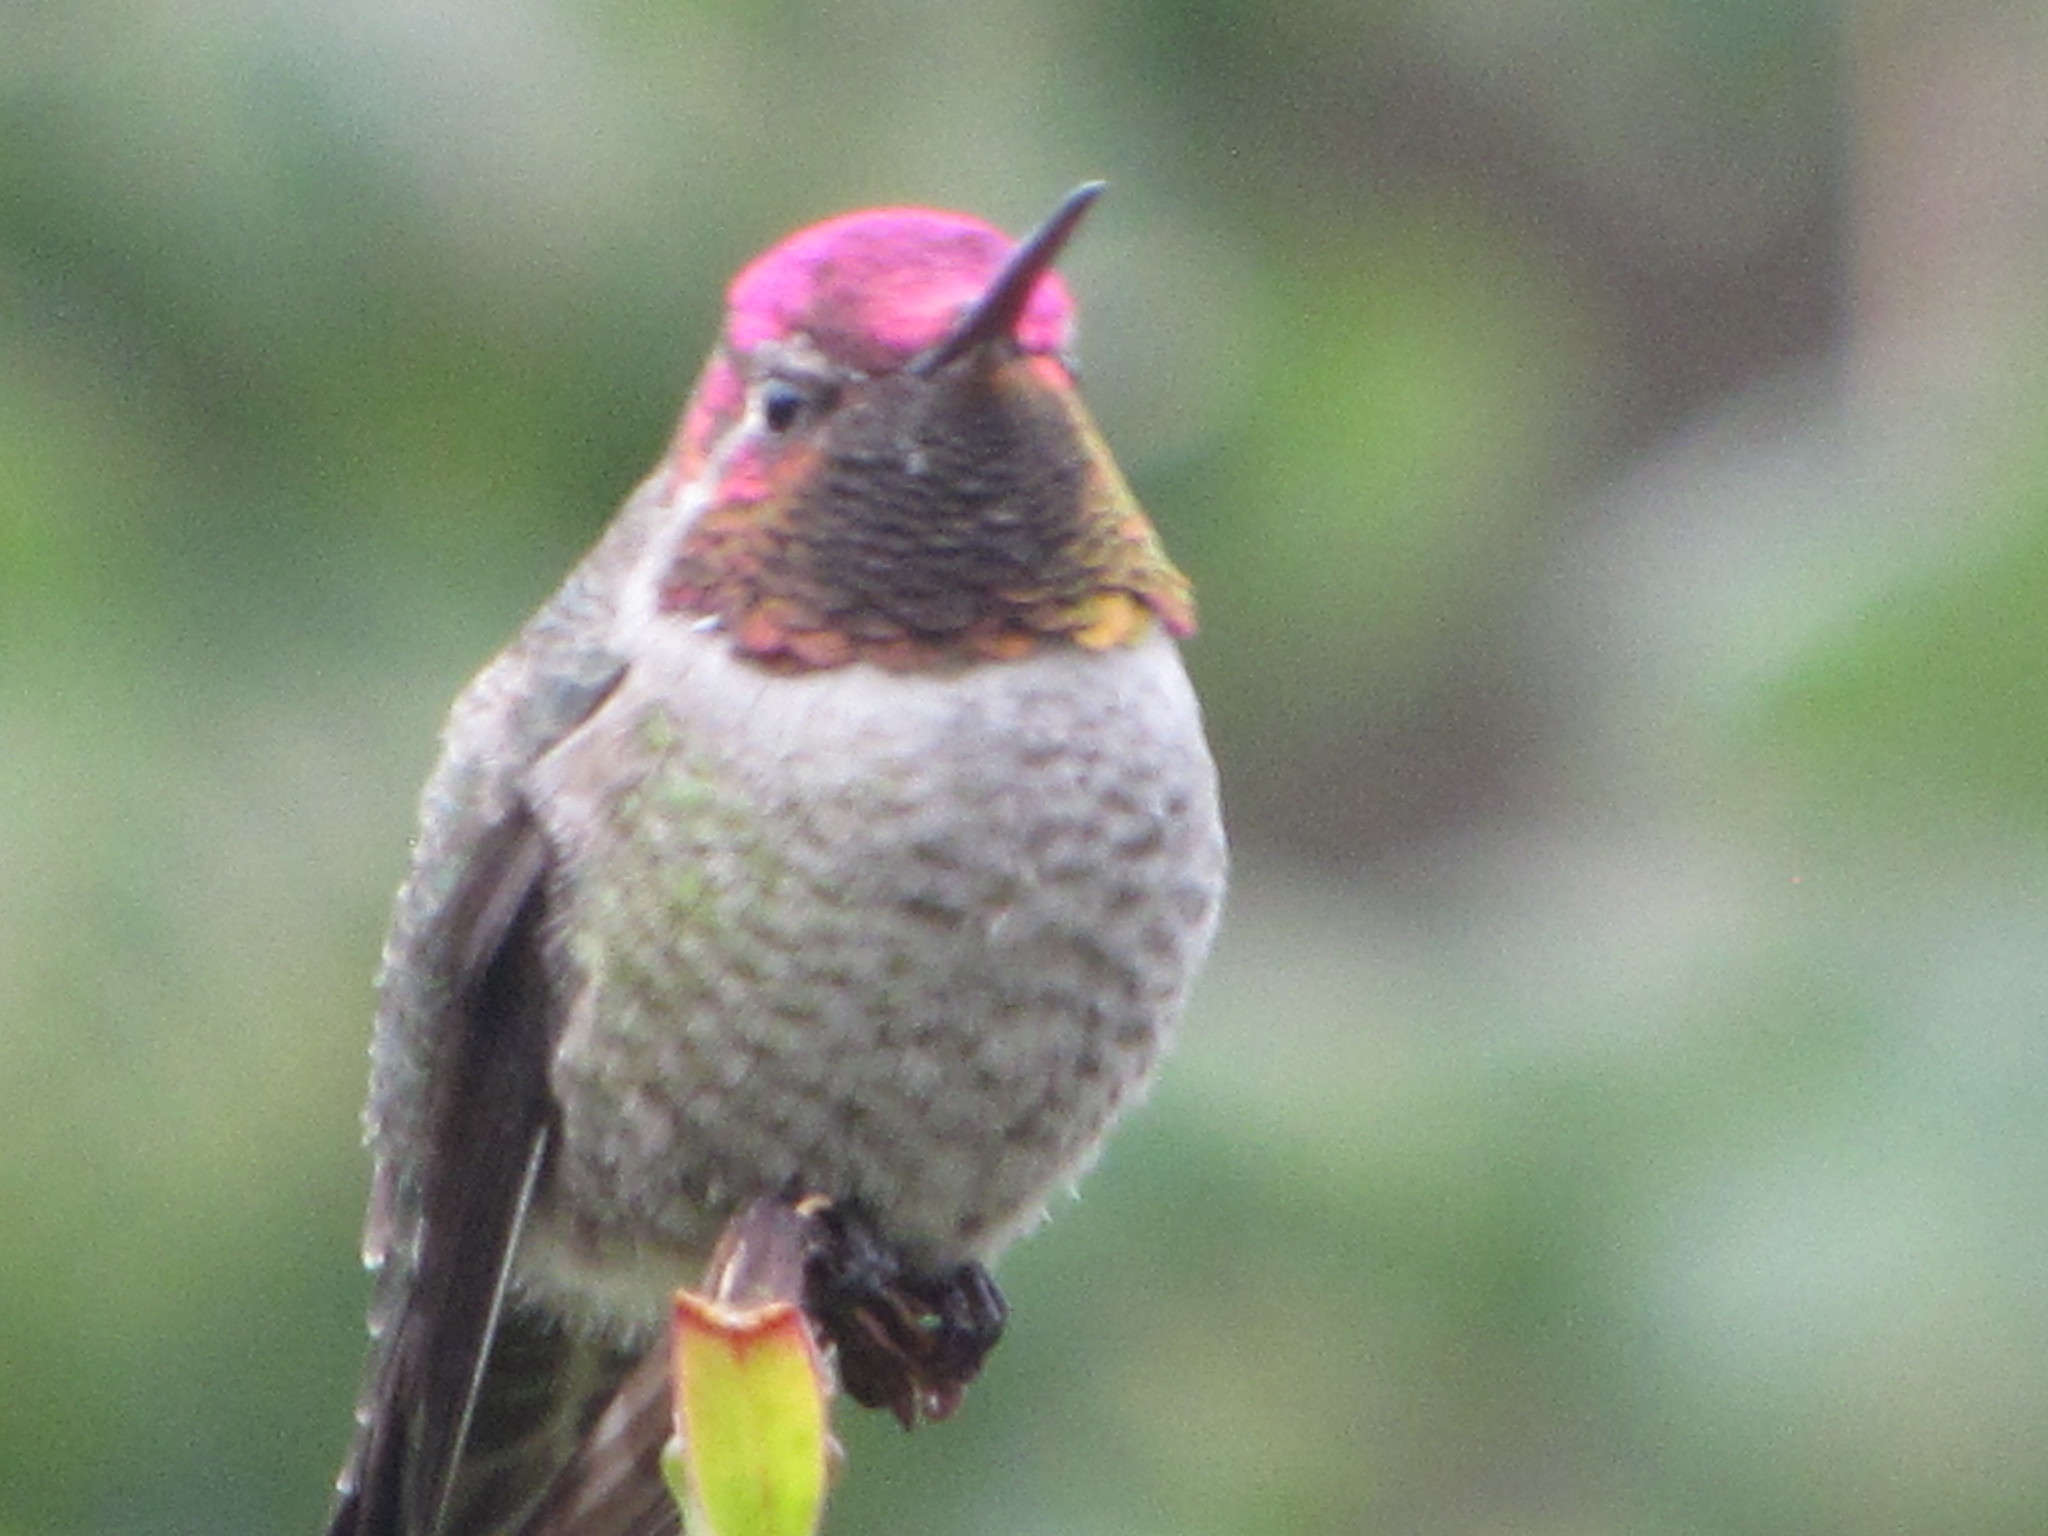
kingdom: Animalia
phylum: Chordata
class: Aves
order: Apodiformes
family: Trochilidae
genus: Calypte
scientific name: Calypte anna
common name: Anna's hummingbird
